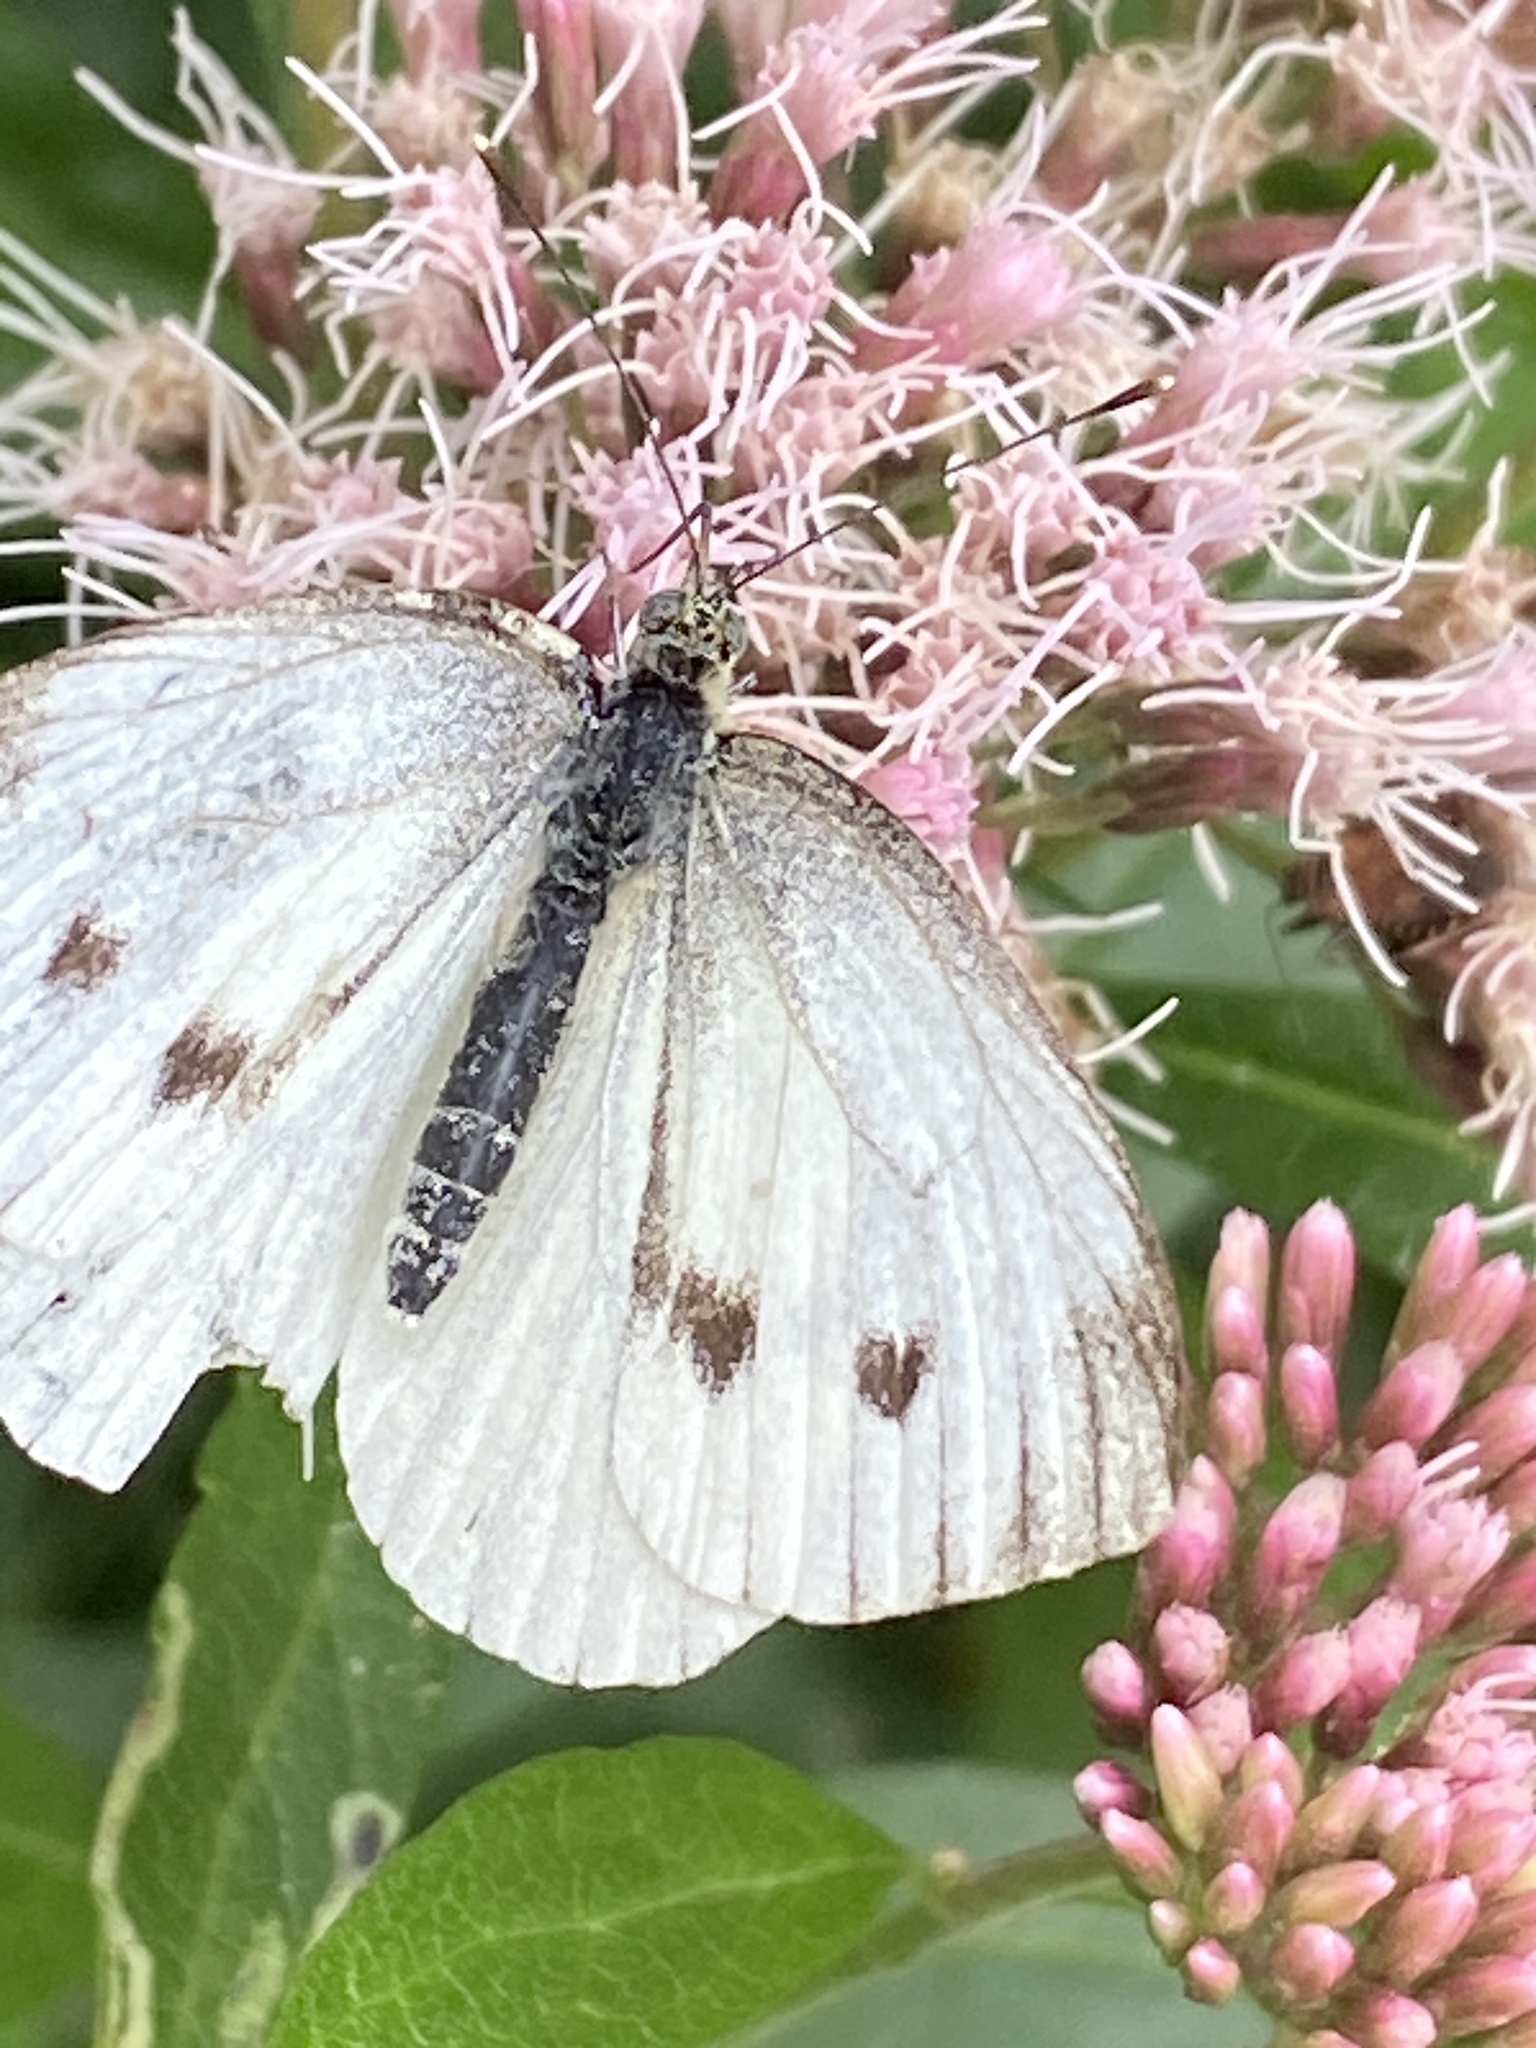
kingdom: Animalia
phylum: Arthropoda
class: Insecta
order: Lepidoptera
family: Pieridae
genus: Pieris
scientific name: Pieris napi
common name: Green-veined white
